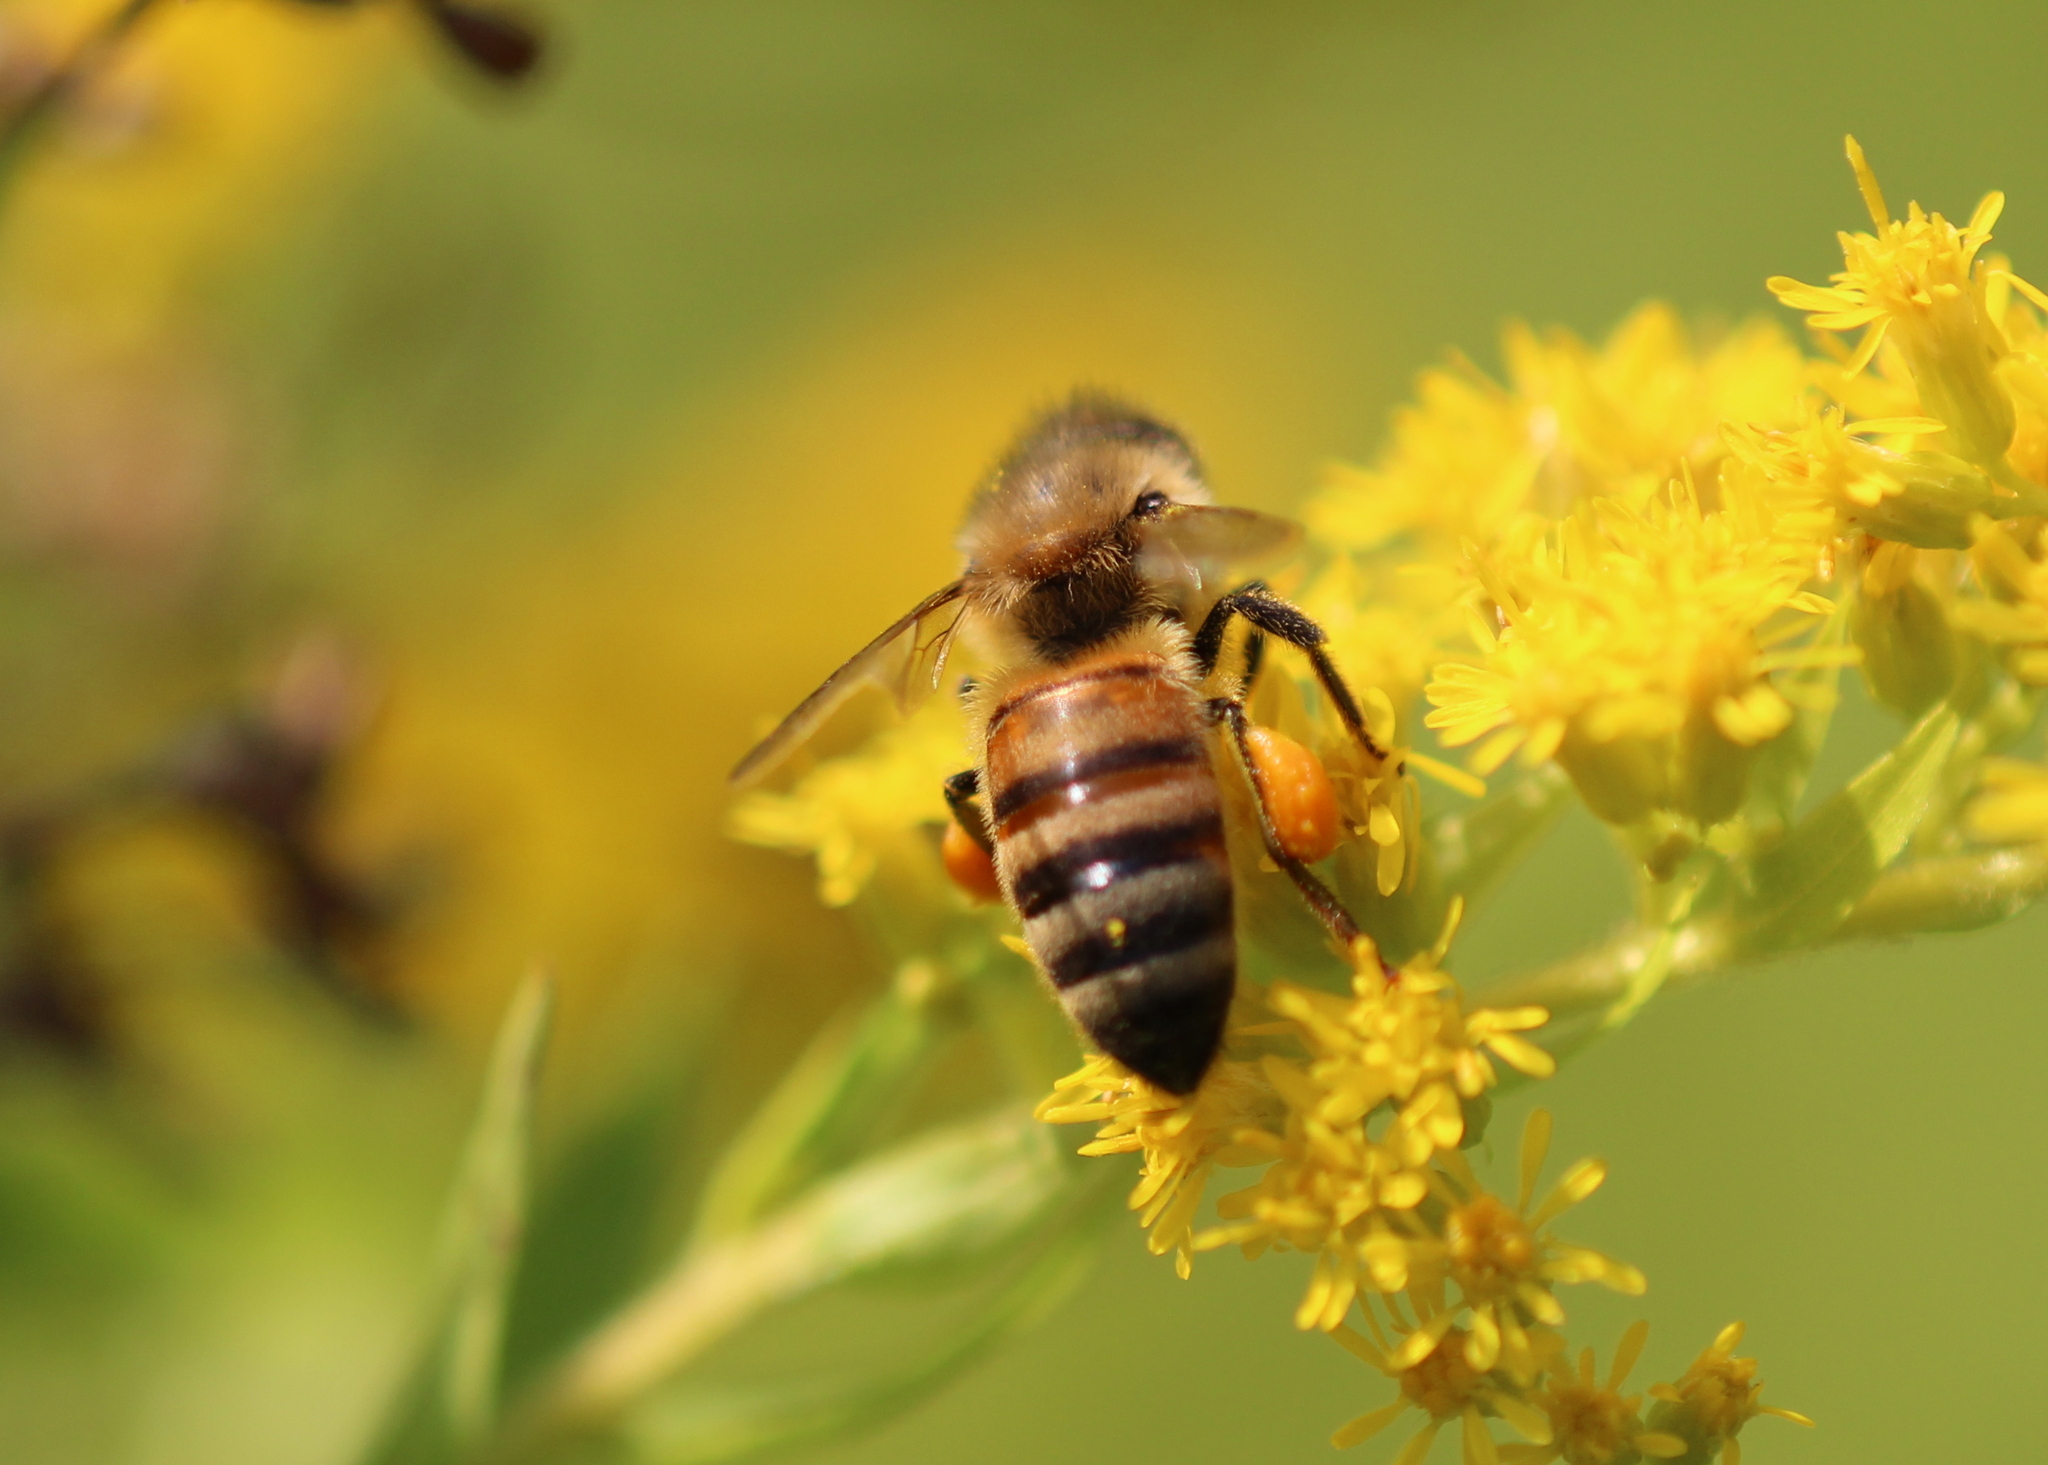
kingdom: Animalia
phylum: Arthropoda
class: Insecta
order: Hymenoptera
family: Apidae
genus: Apis
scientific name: Apis mellifera
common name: Honey bee
